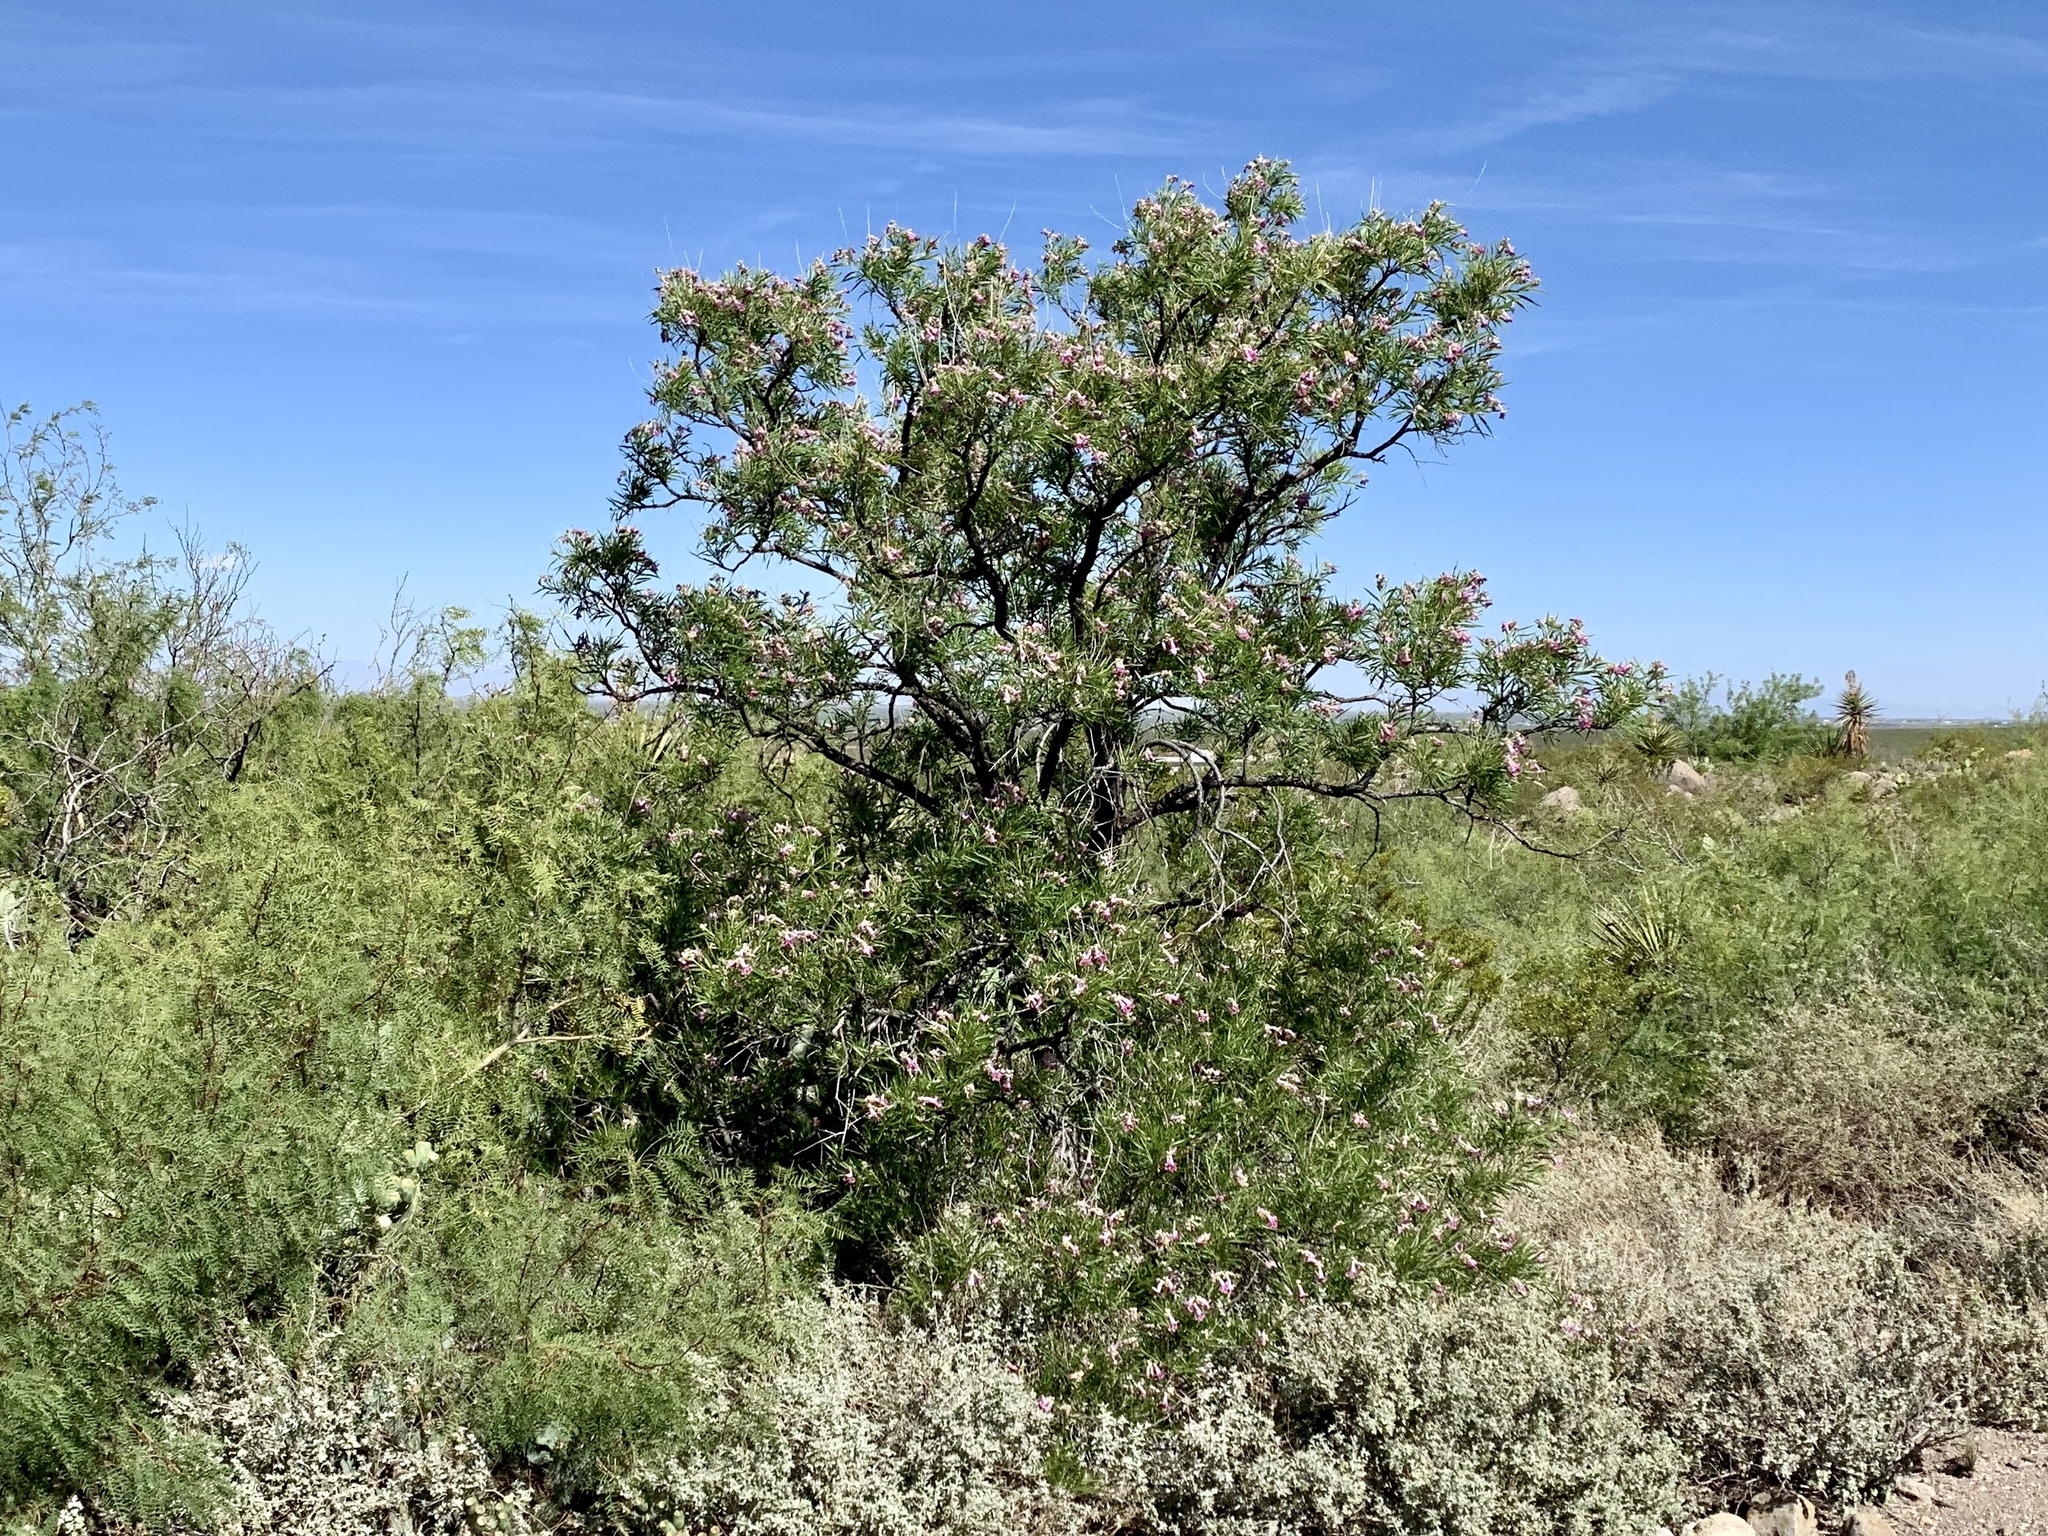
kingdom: Plantae
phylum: Tracheophyta
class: Magnoliopsida
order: Lamiales
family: Bignoniaceae
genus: Chilopsis
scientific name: Chilopsis linearis
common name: Desert-willow
